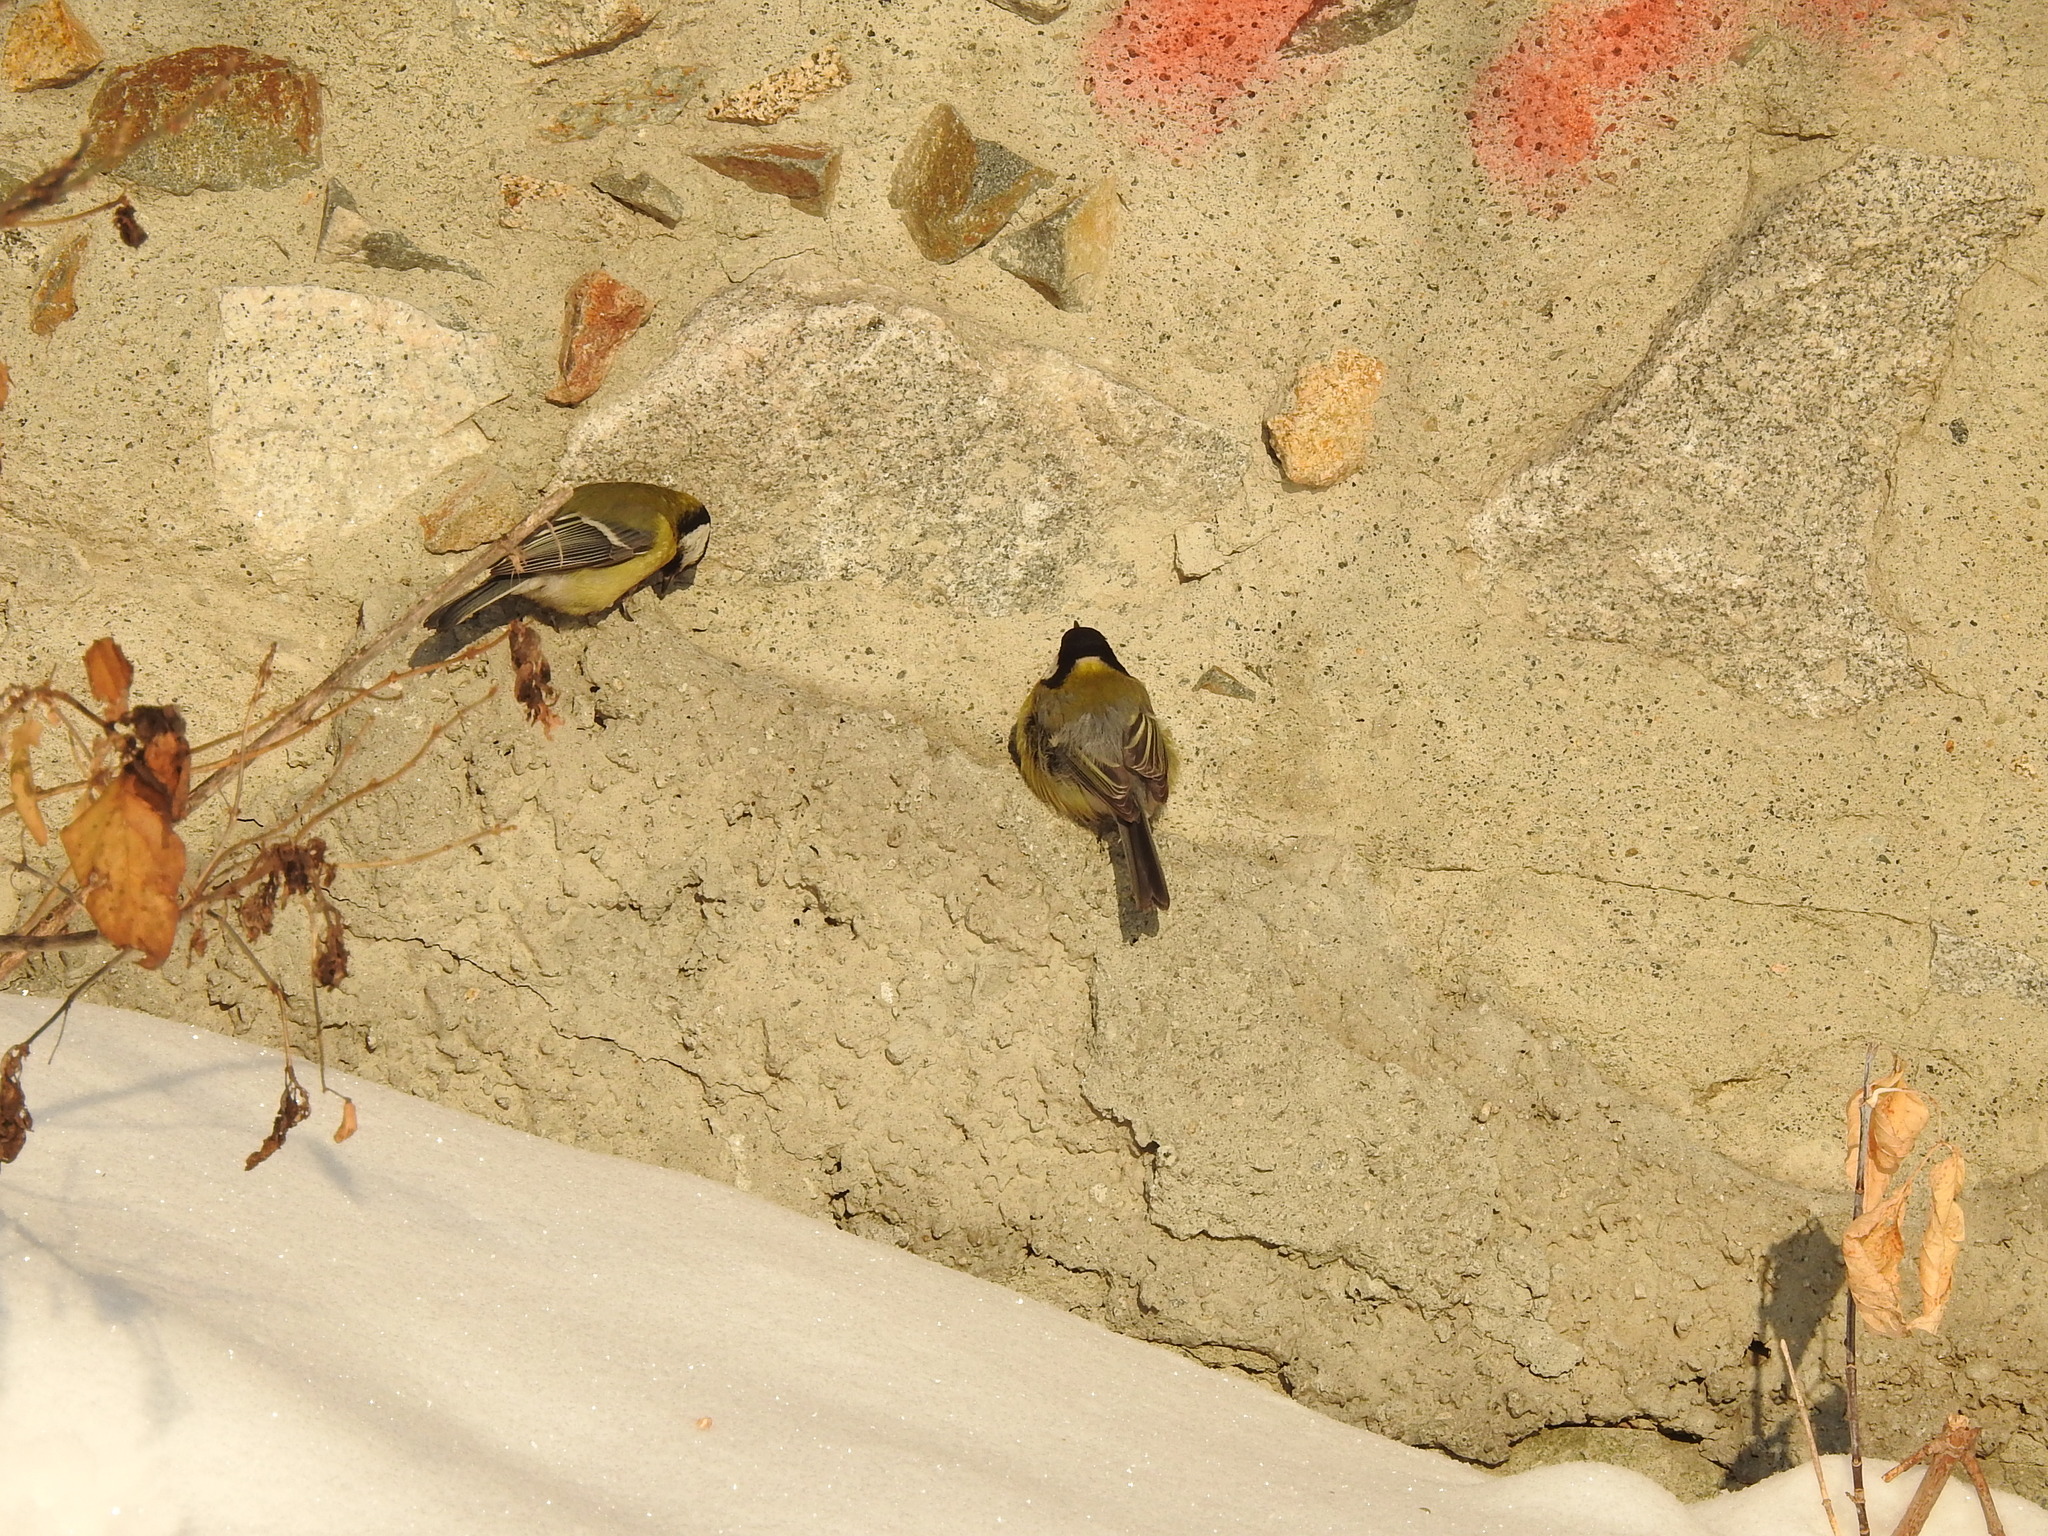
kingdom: Animalia
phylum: Chordata
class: Aves
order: Passeriformes
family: Paridae
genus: Parus
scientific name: Parus major
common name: Great tit
